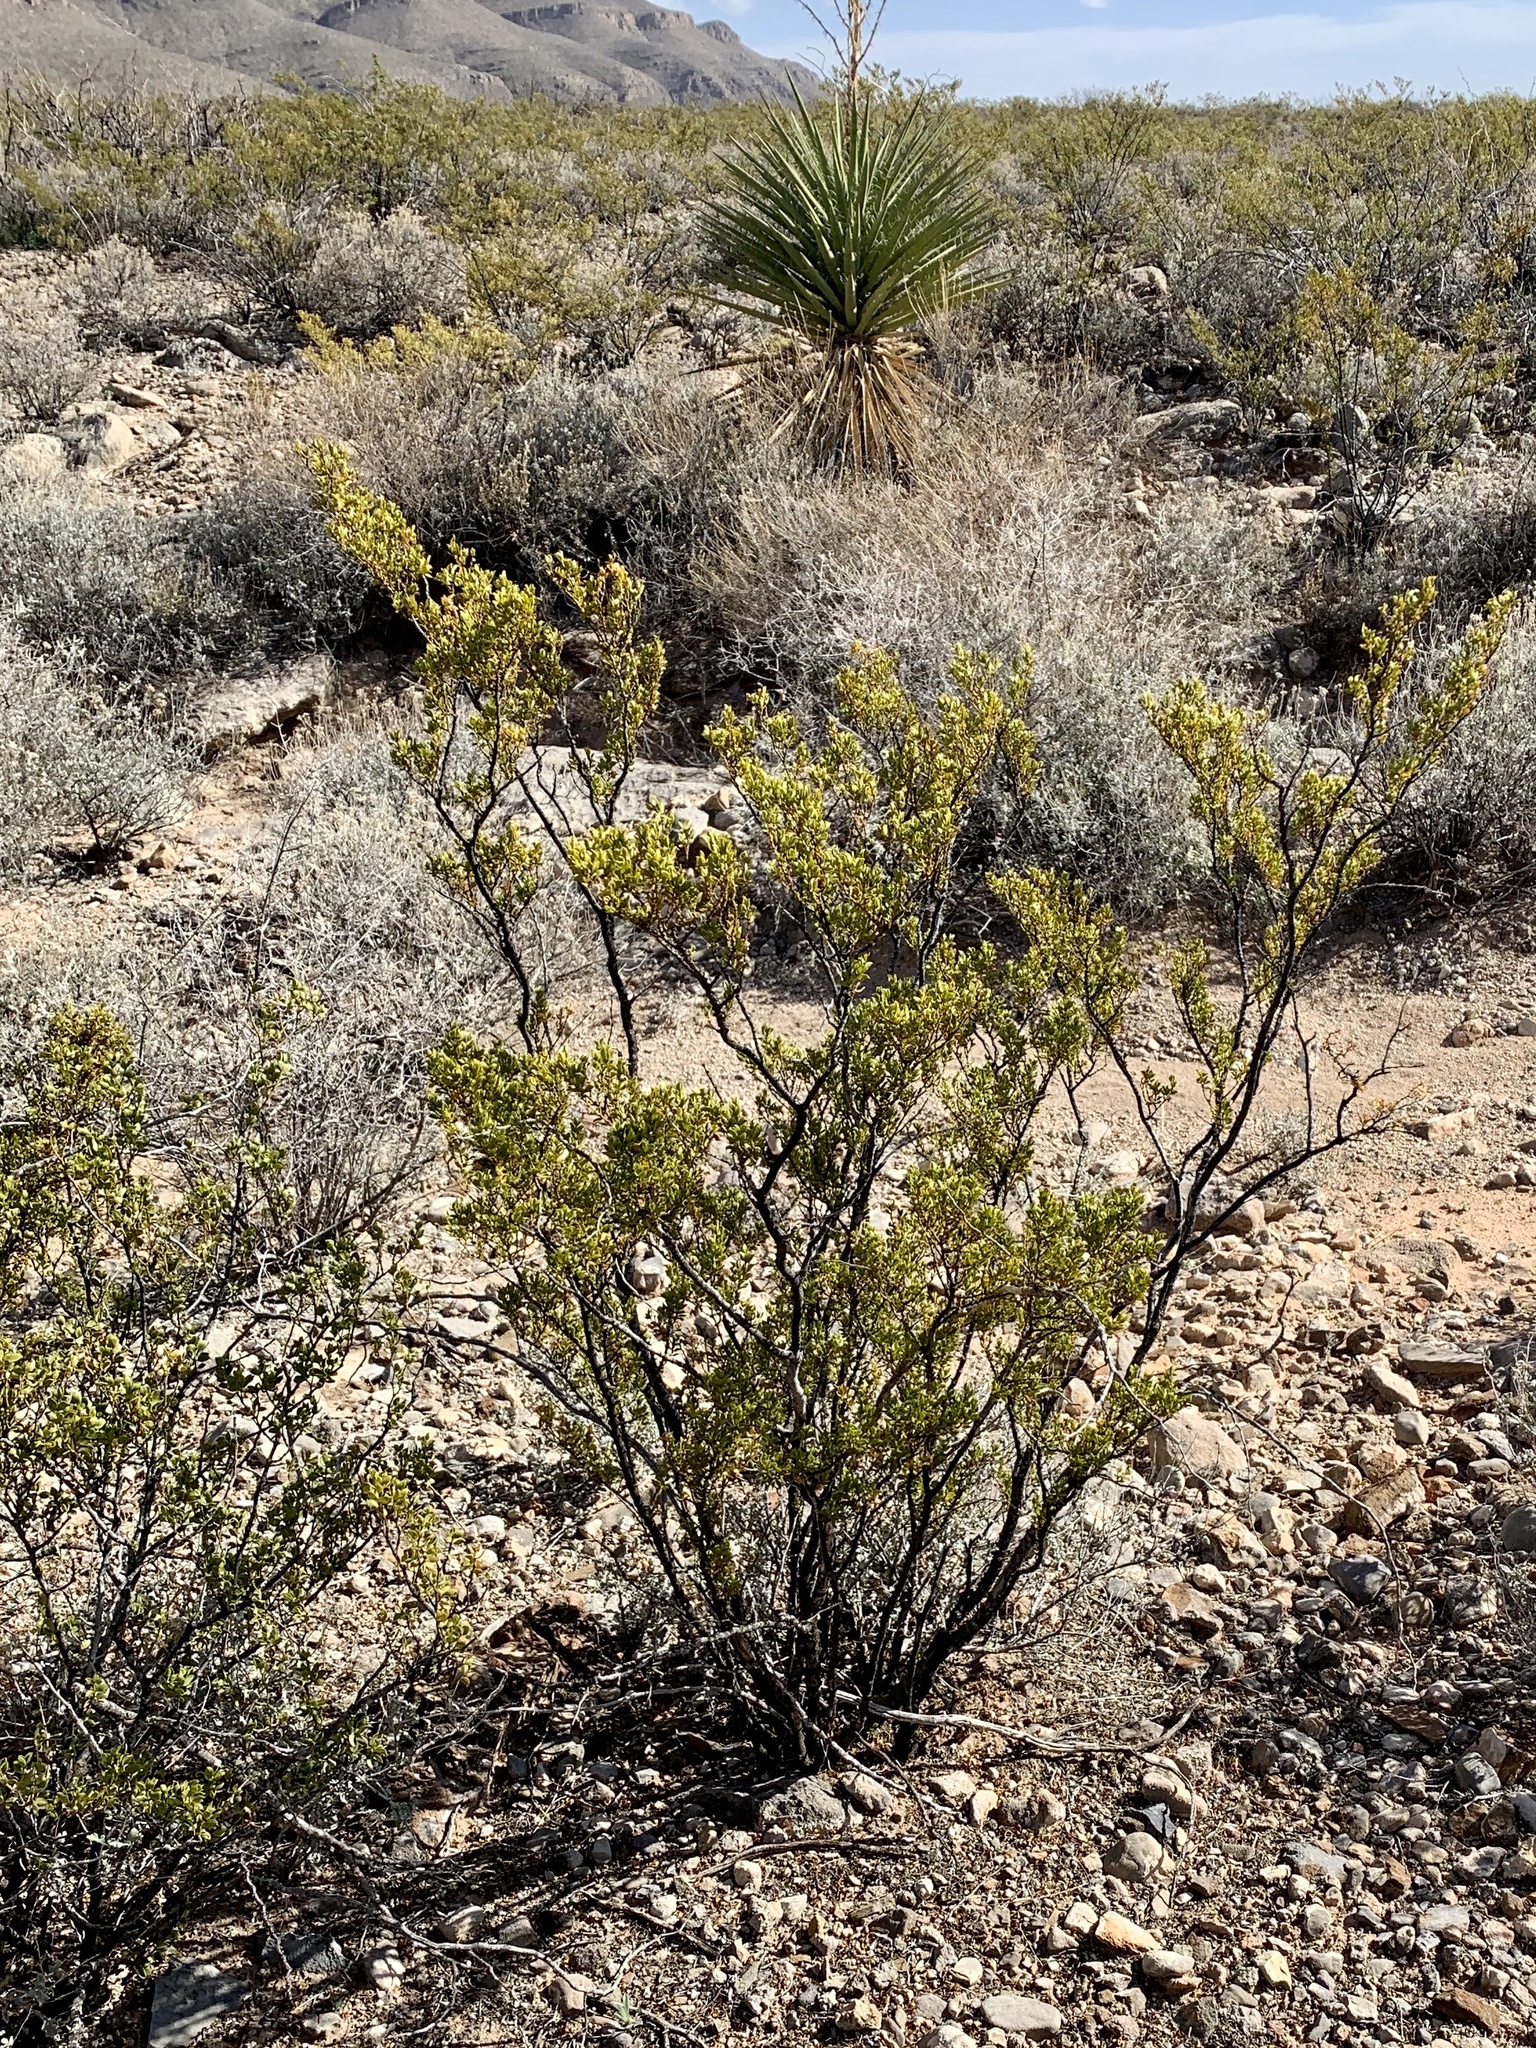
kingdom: Plantae
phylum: Tracheophyta
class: Magnoliopsida
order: Zygophyllales
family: Zygophyllaceae
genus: Larrea
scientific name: Larrea tridentata
